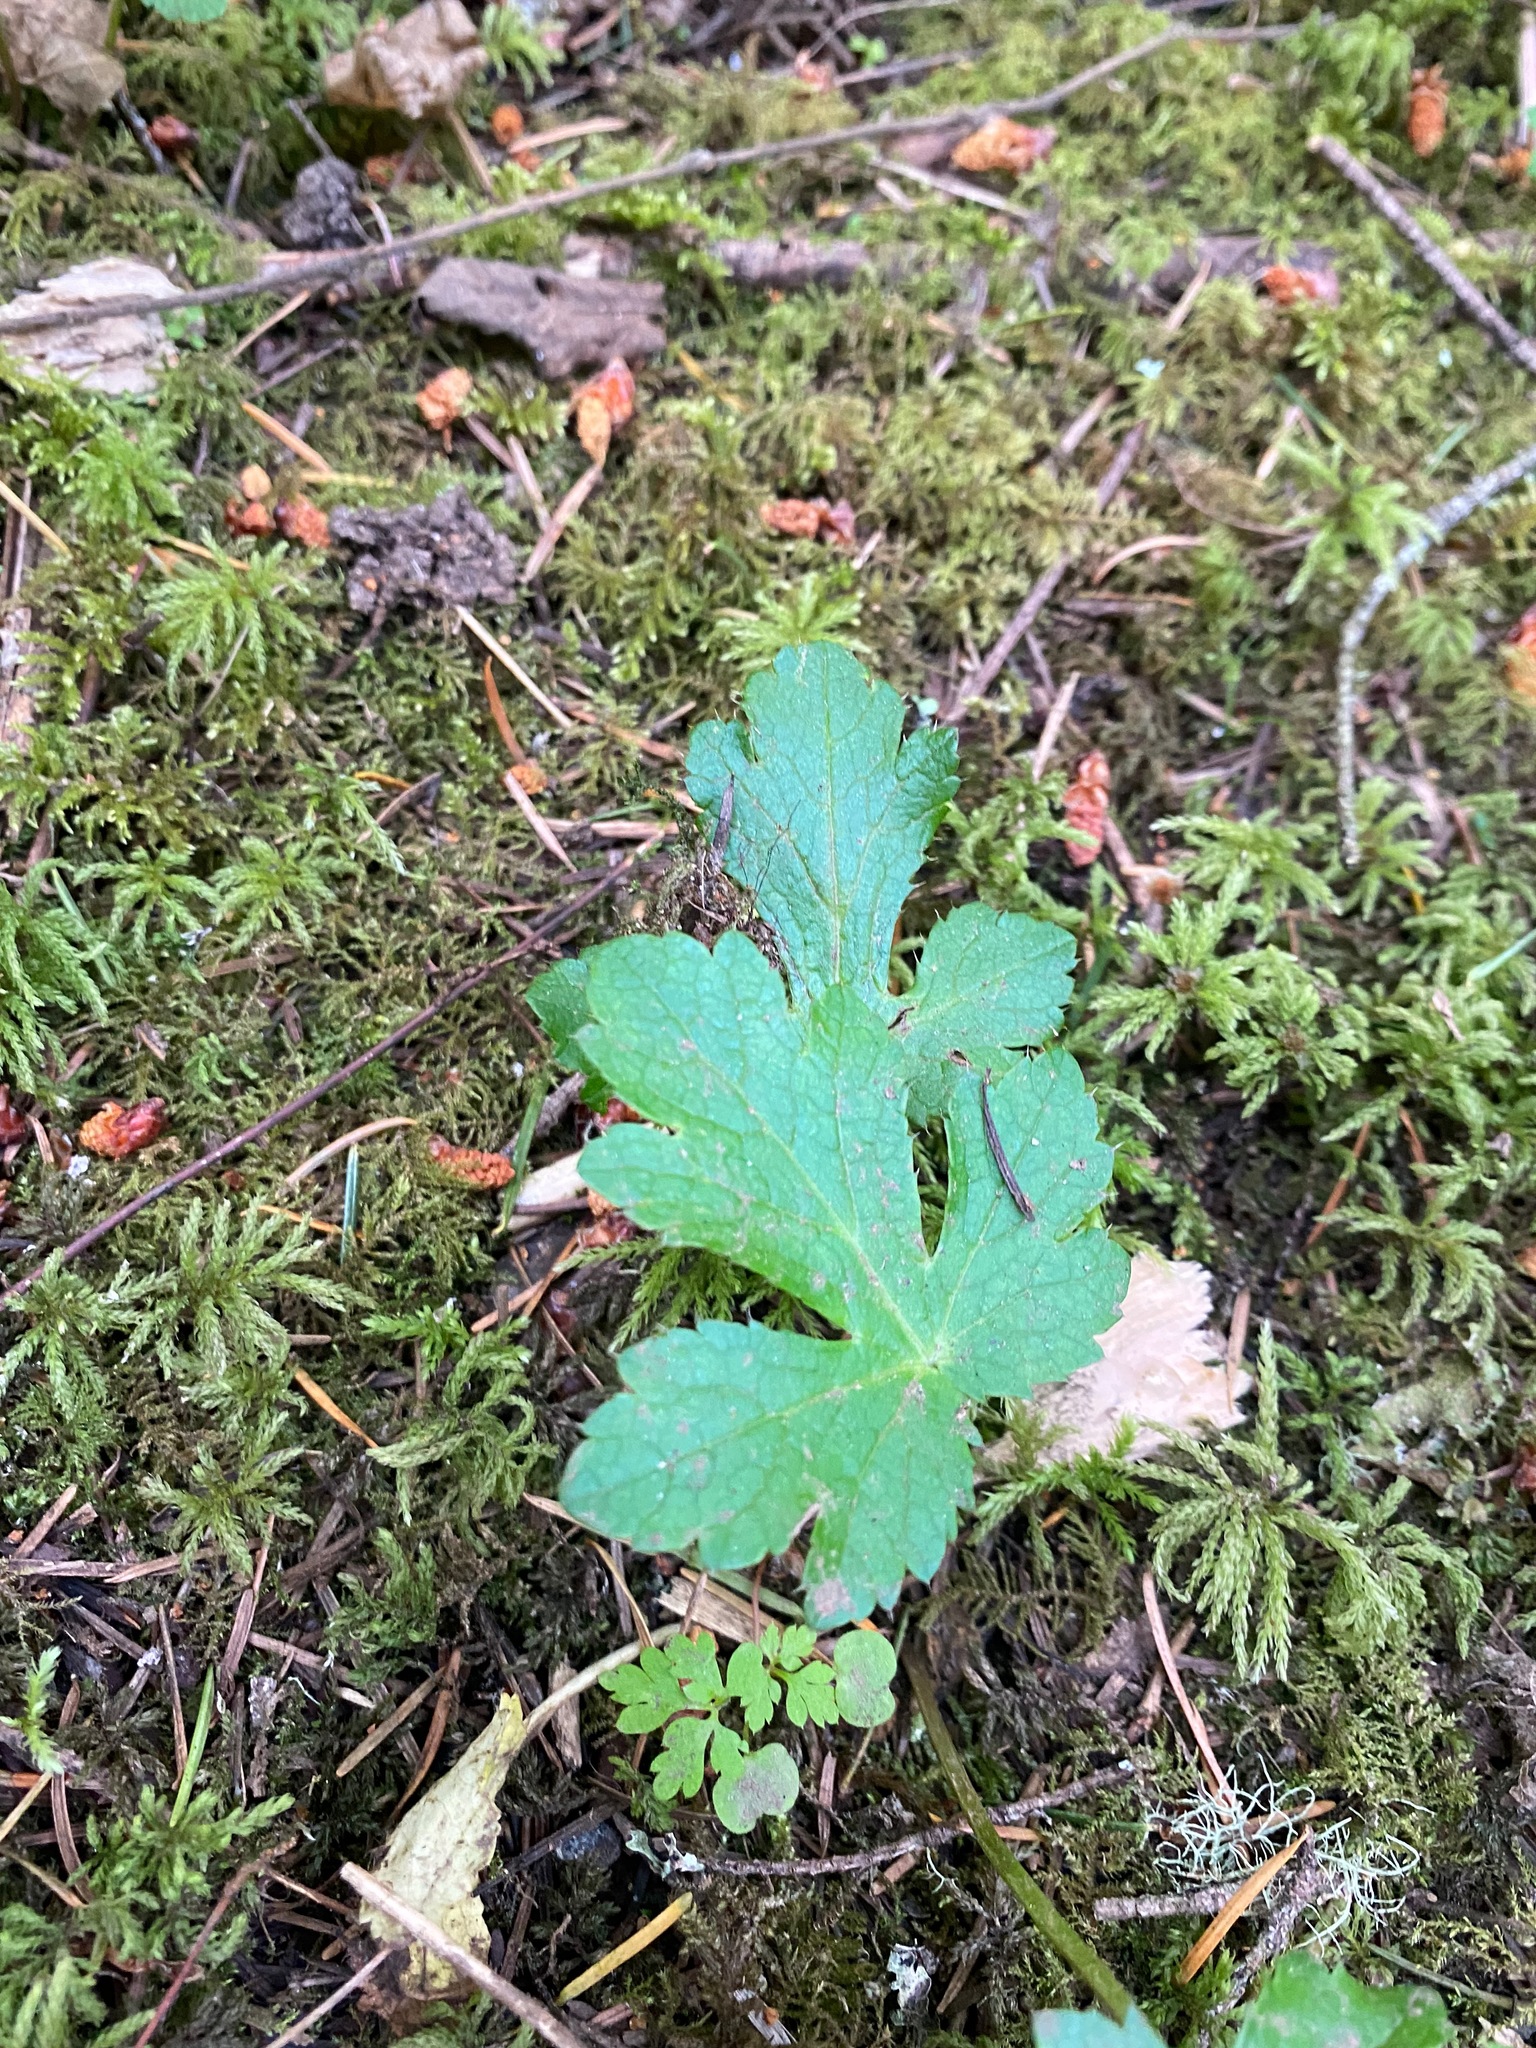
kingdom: Plantae
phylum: Tracheophyta
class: Magnoliopsida
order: Apiales
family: Apiaceae
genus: Sanicula
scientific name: Sanicula crassicaulis
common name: Western snakeroot
